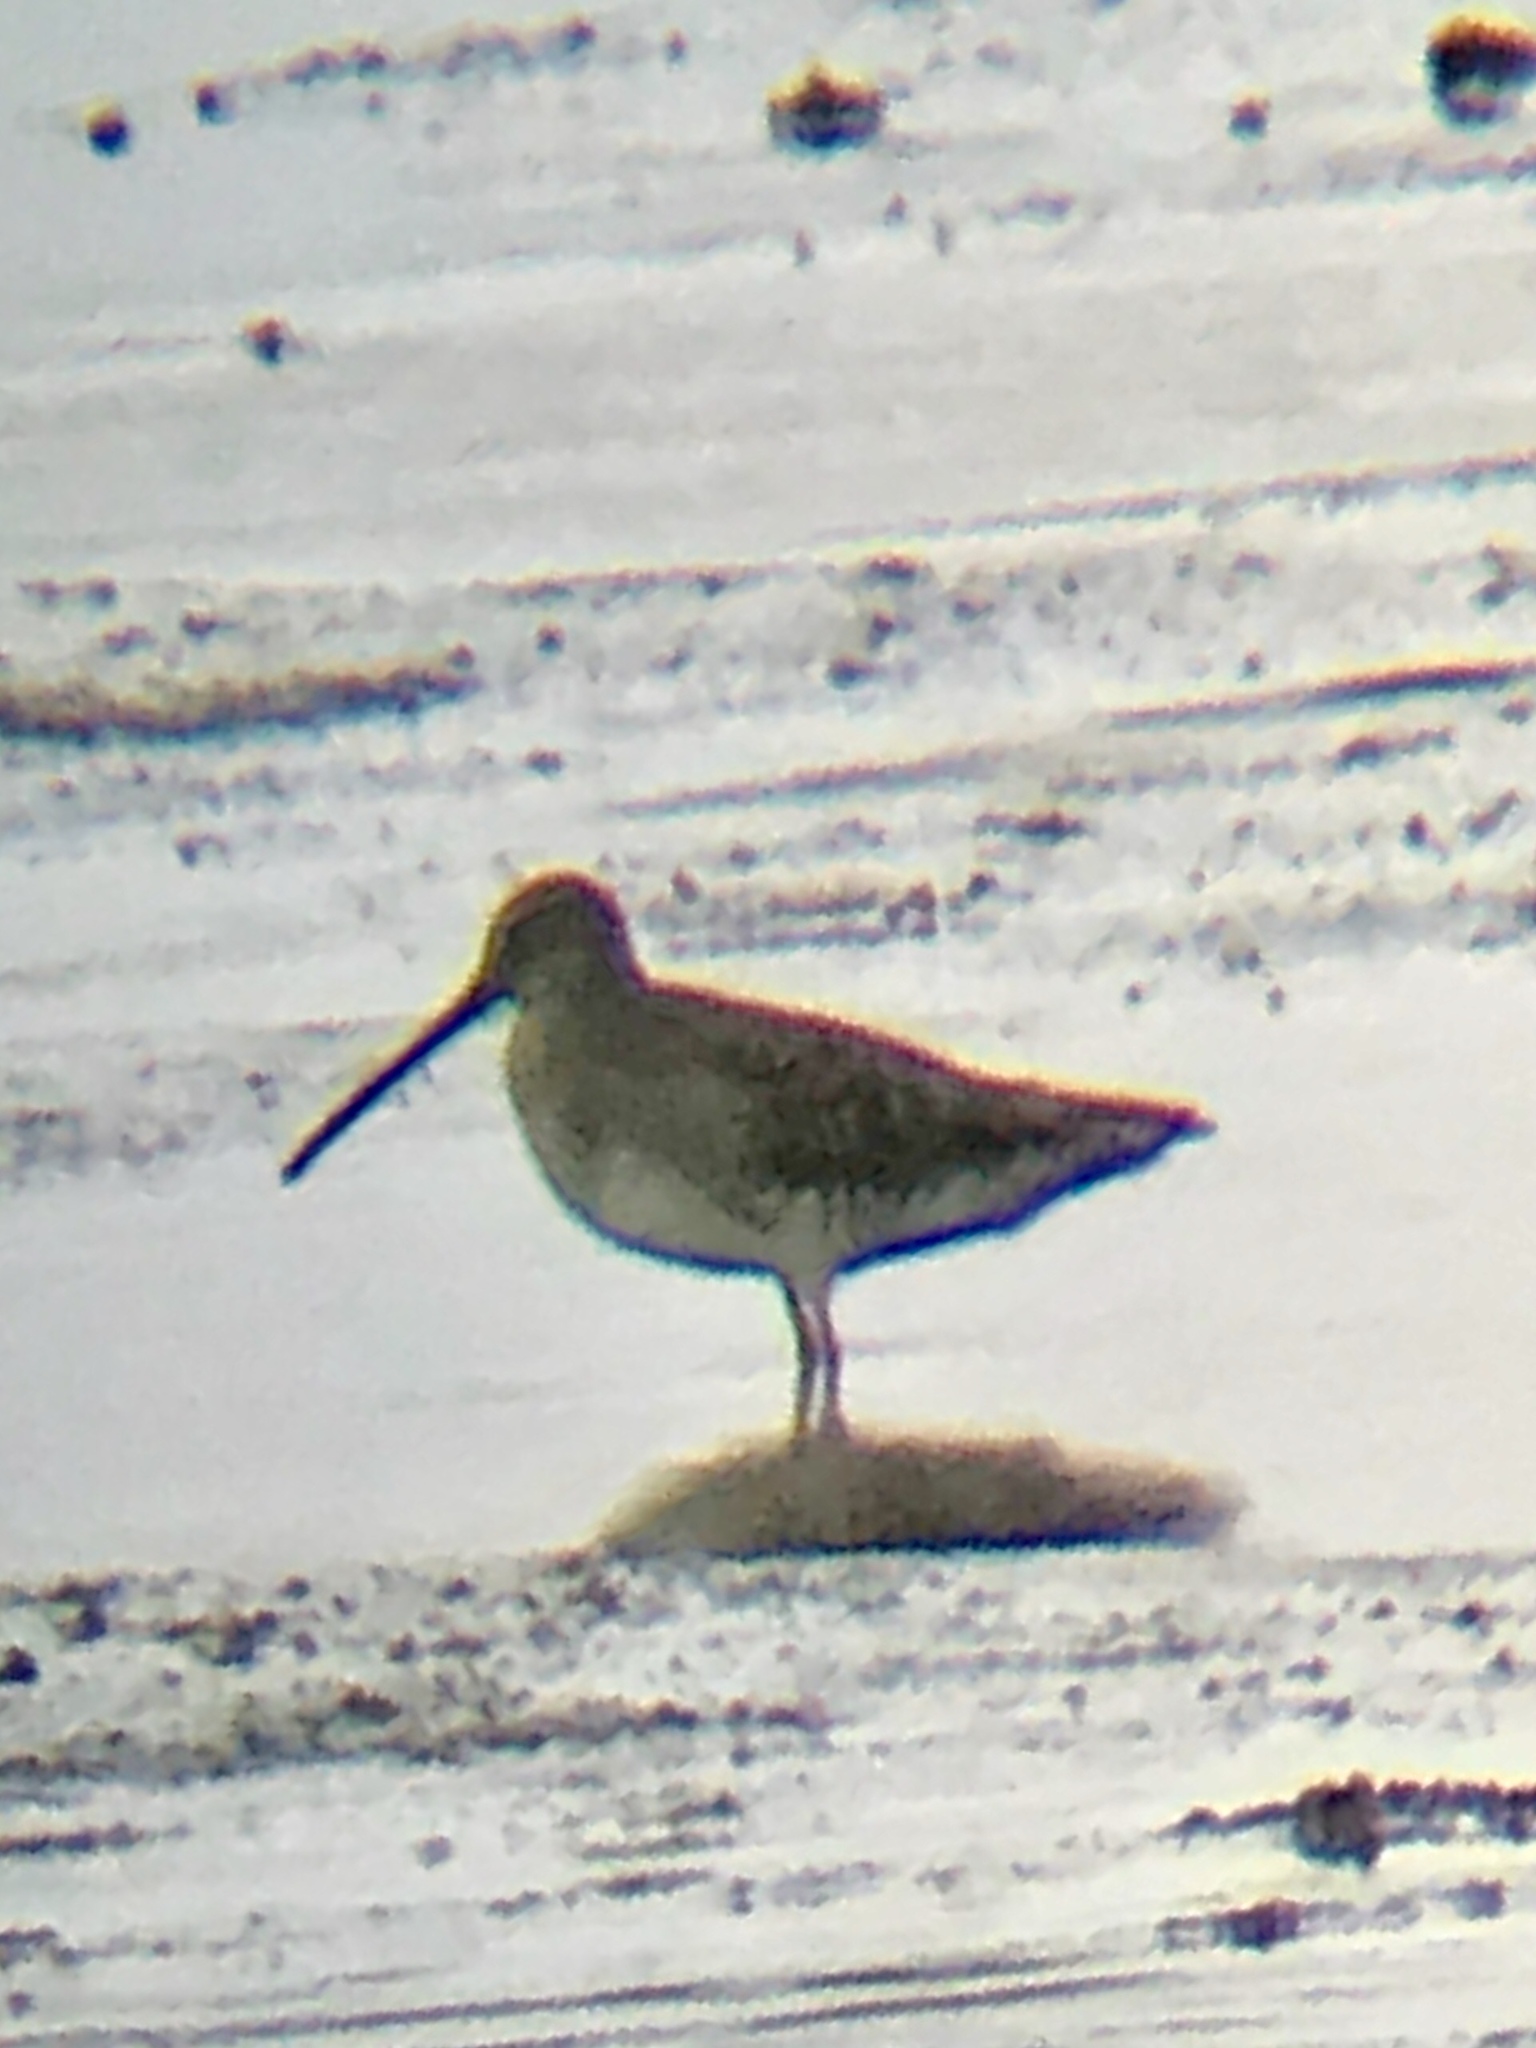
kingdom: Animalia
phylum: Chordata
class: Aves
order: Charadriiformes
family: Scolopacidae
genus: Limnodromus
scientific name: Limnodromus scolopaceus
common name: Long-billed dowitcher
